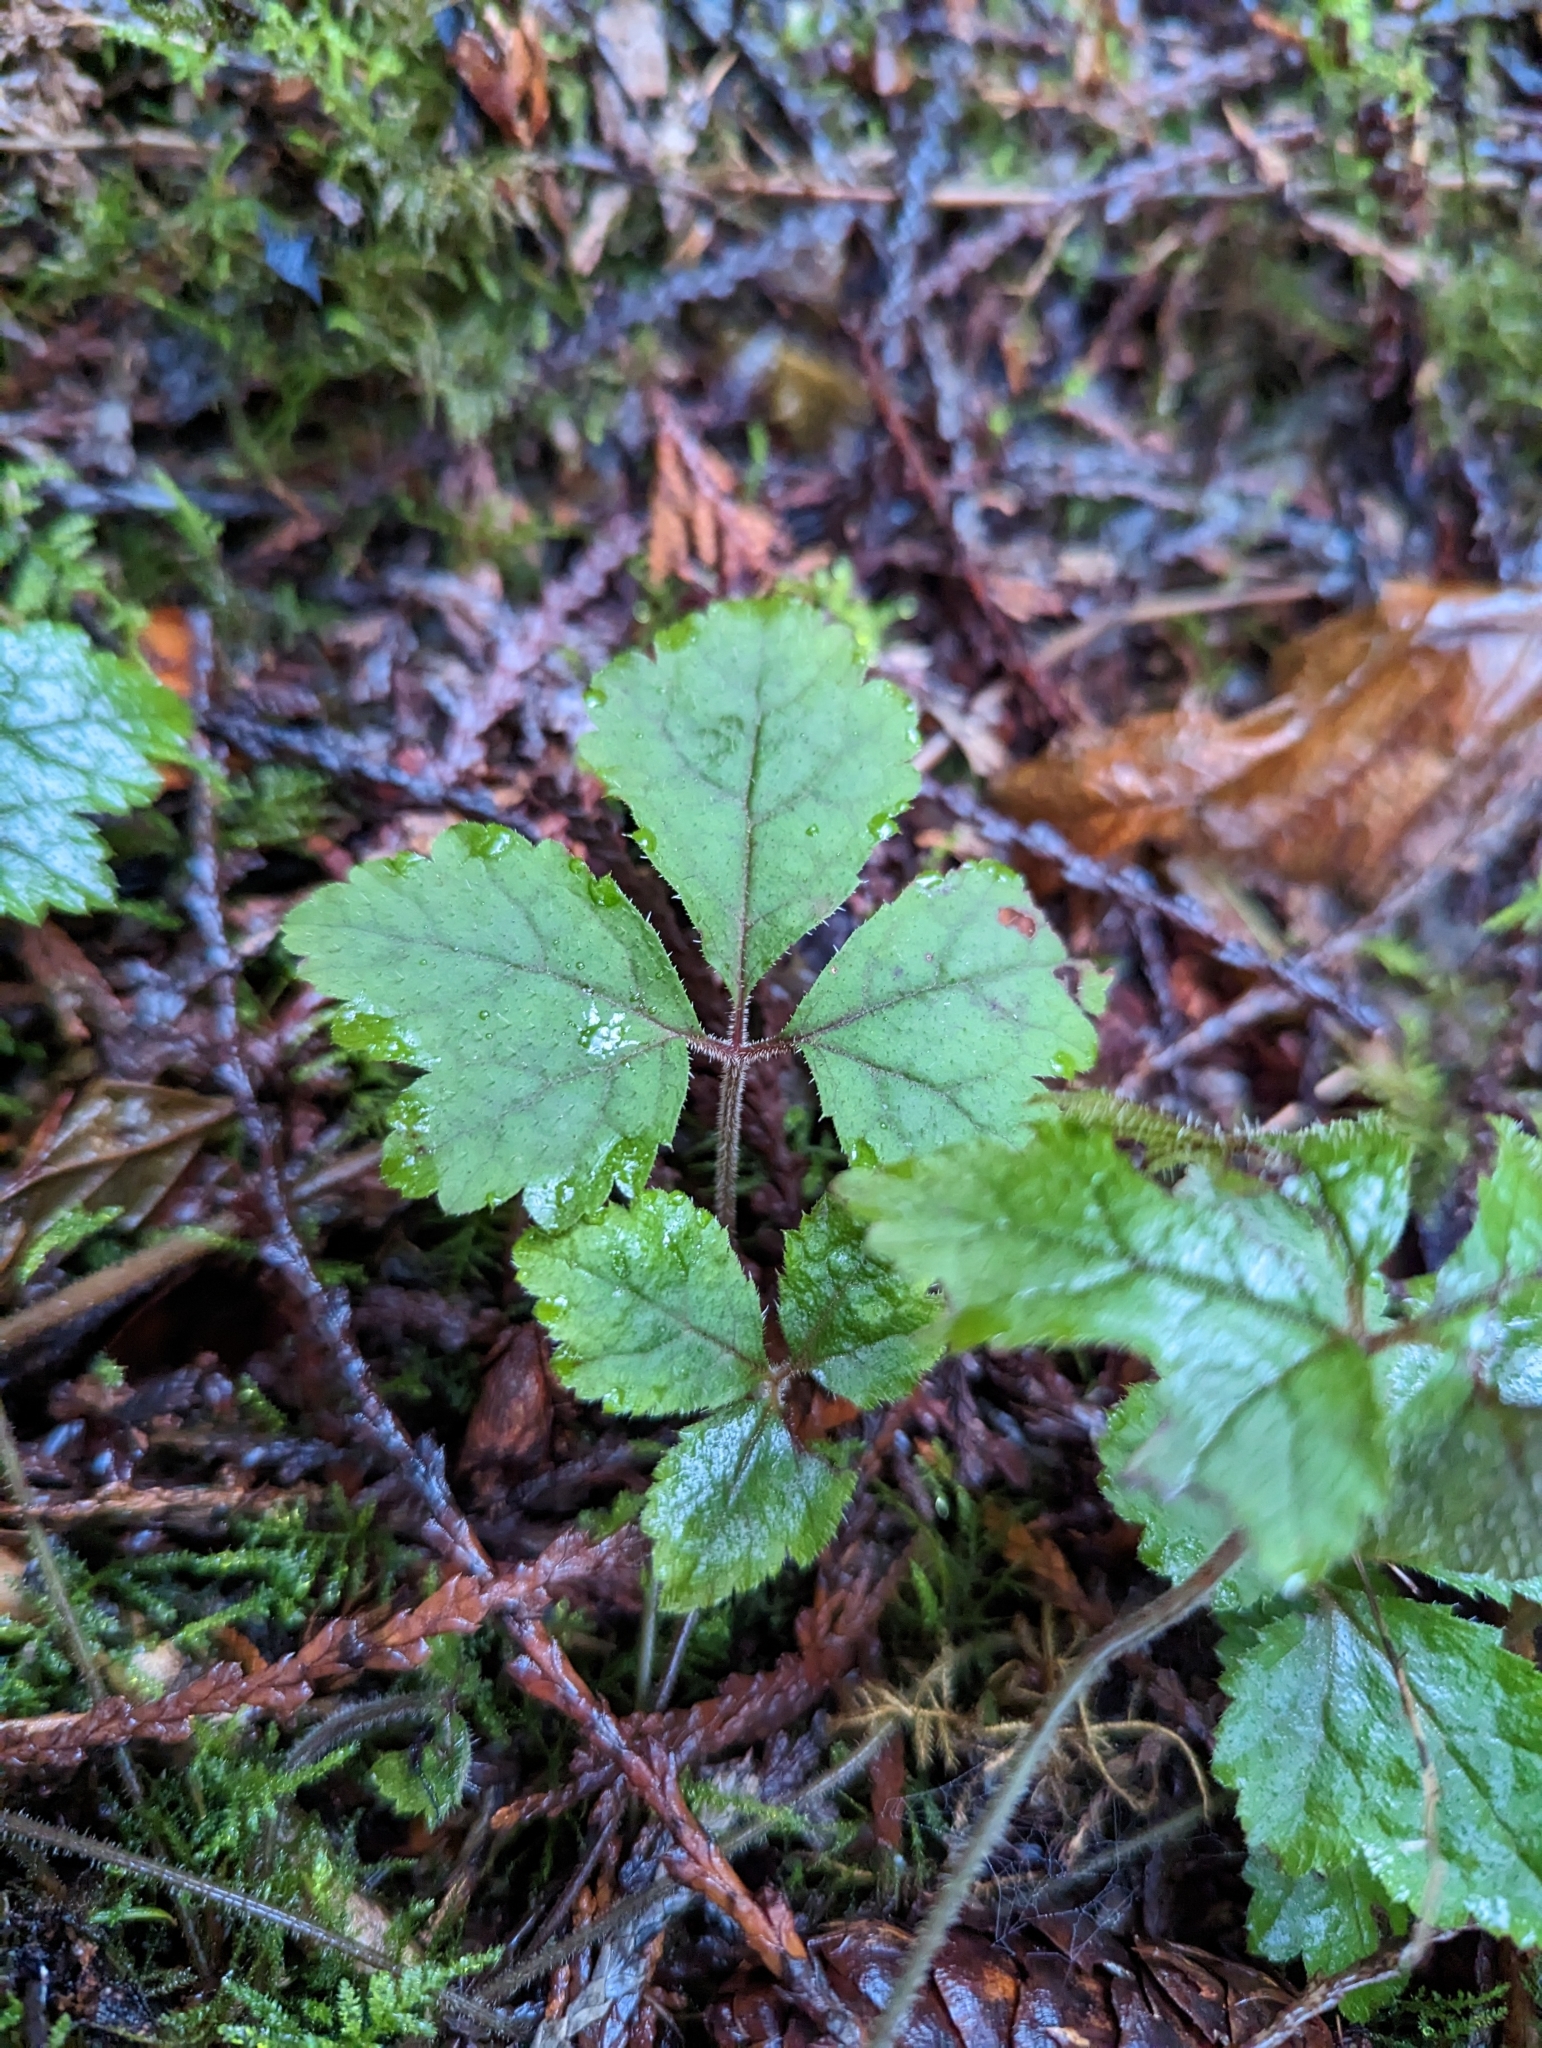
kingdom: Plantae
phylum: Tracheophyta
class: Magnoliopsida
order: Saxifragales
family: Saxifragaceae
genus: Tiarella
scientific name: Tiarella trifoliata
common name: Sugar-scoop
